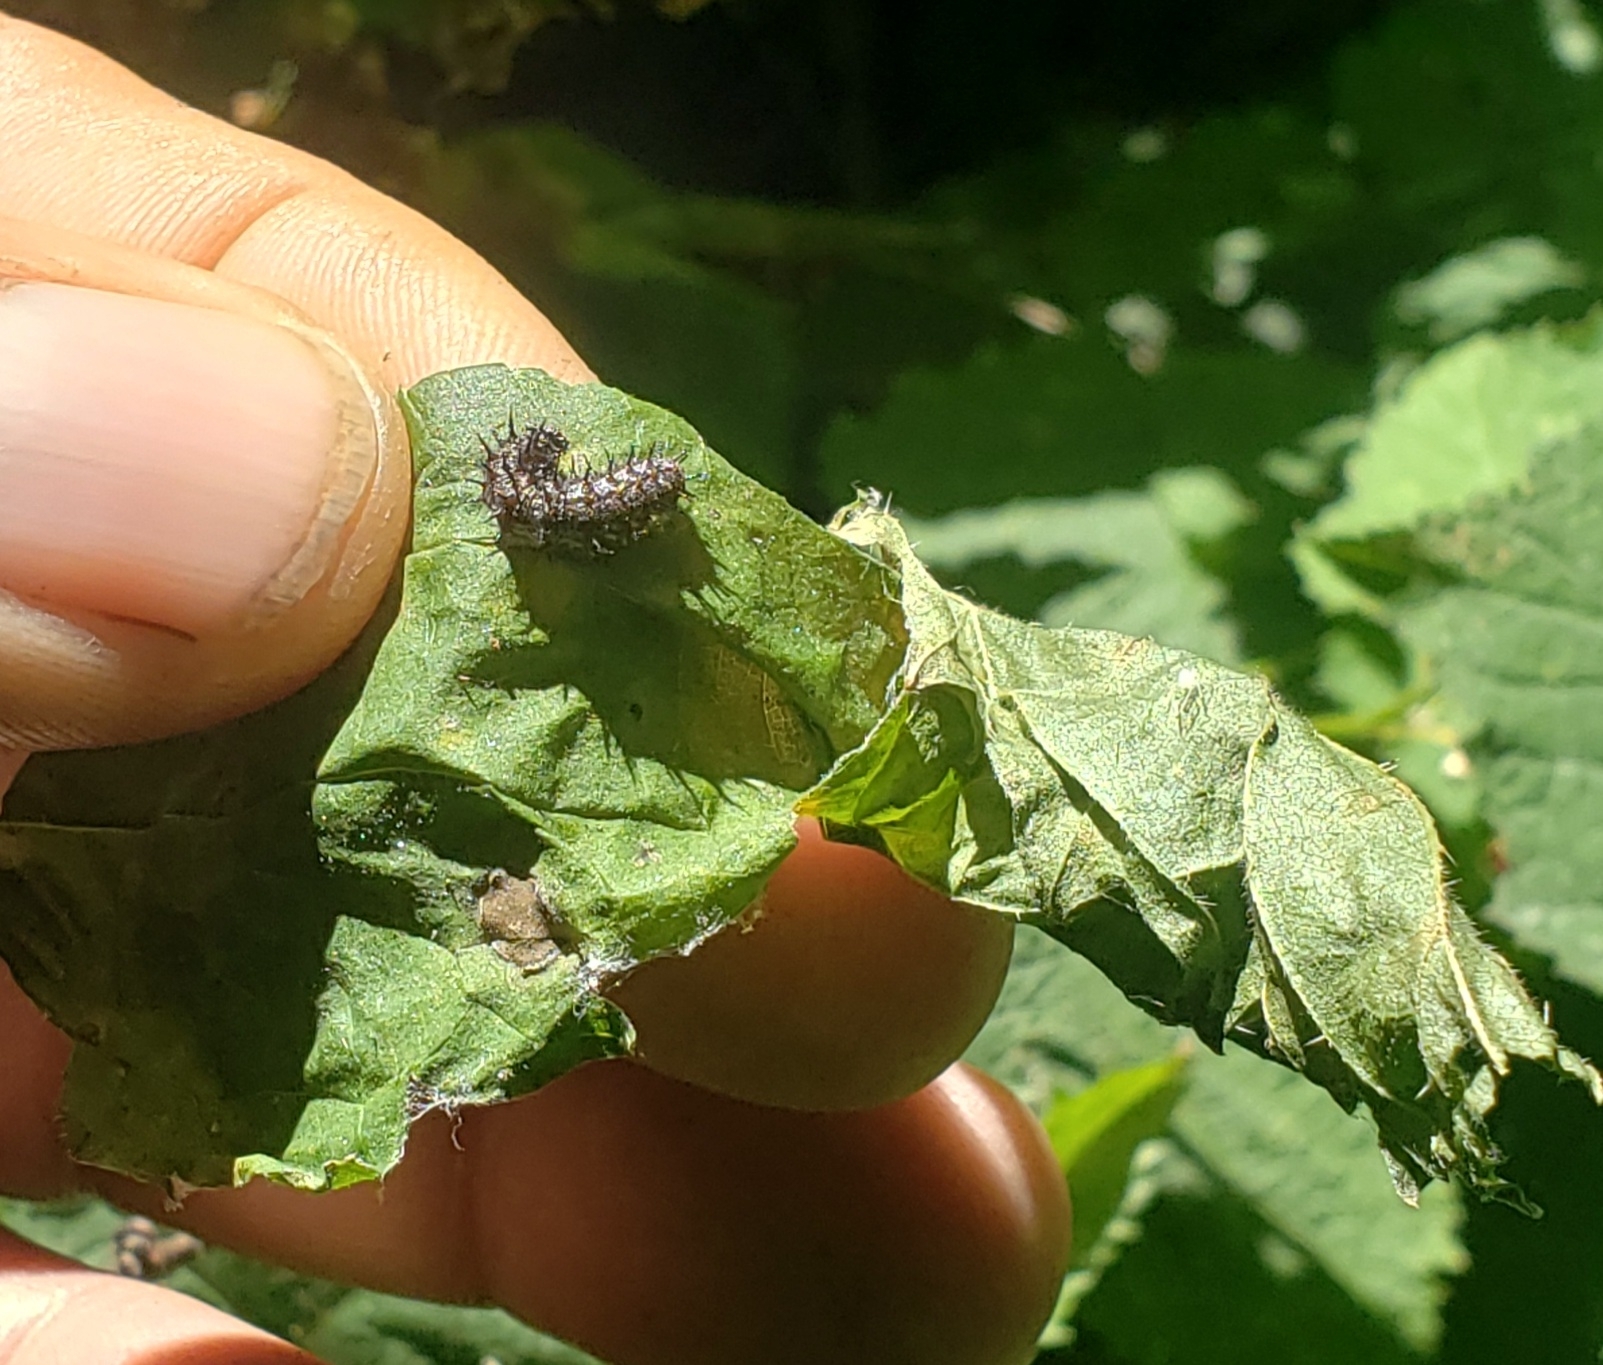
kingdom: Animalia
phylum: Arthropoda
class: Insecta
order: Lepidoptera
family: Nymphalidae
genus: Vanessa
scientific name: Vanessa atalanta
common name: Red admiral
